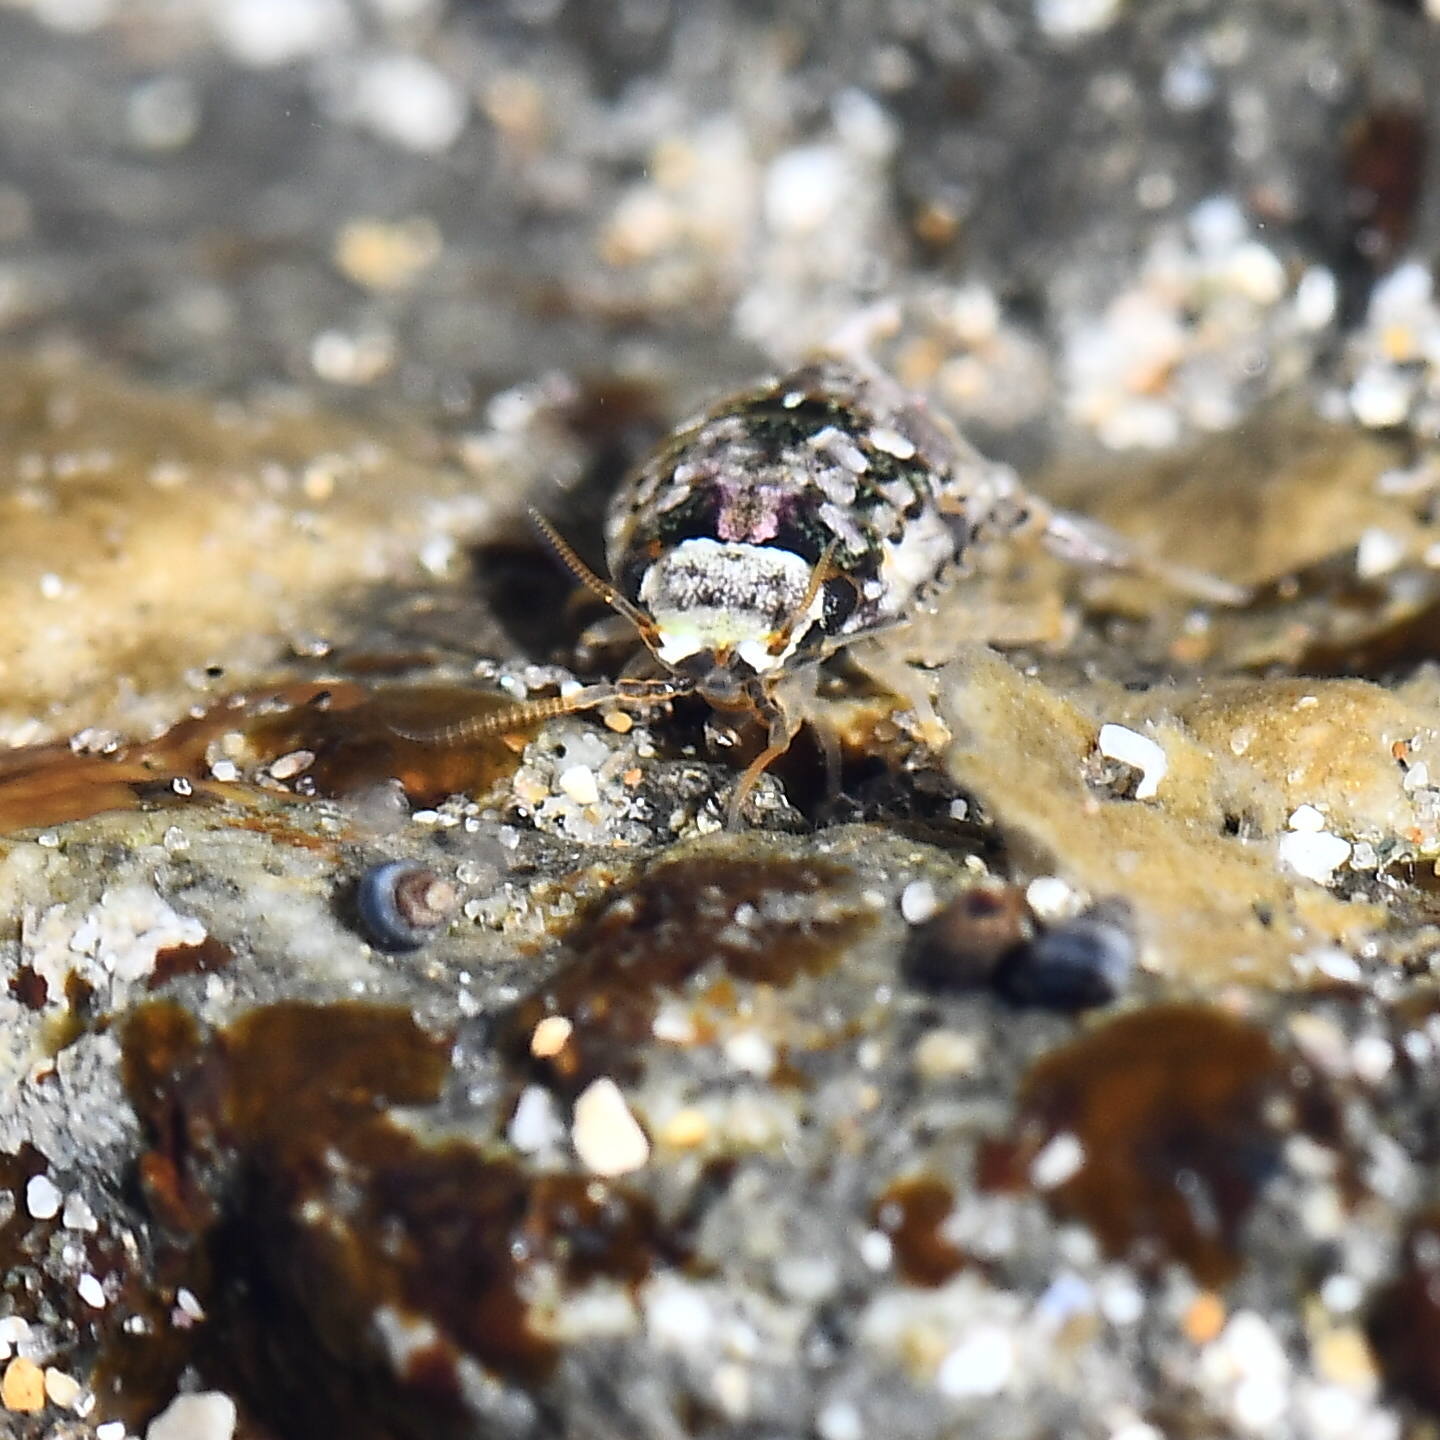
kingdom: Animalia
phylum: Arthropoda
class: Malacostraca
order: Isopoda
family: Sphaeromatidae
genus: Isocladus
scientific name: Isocladus armatus
